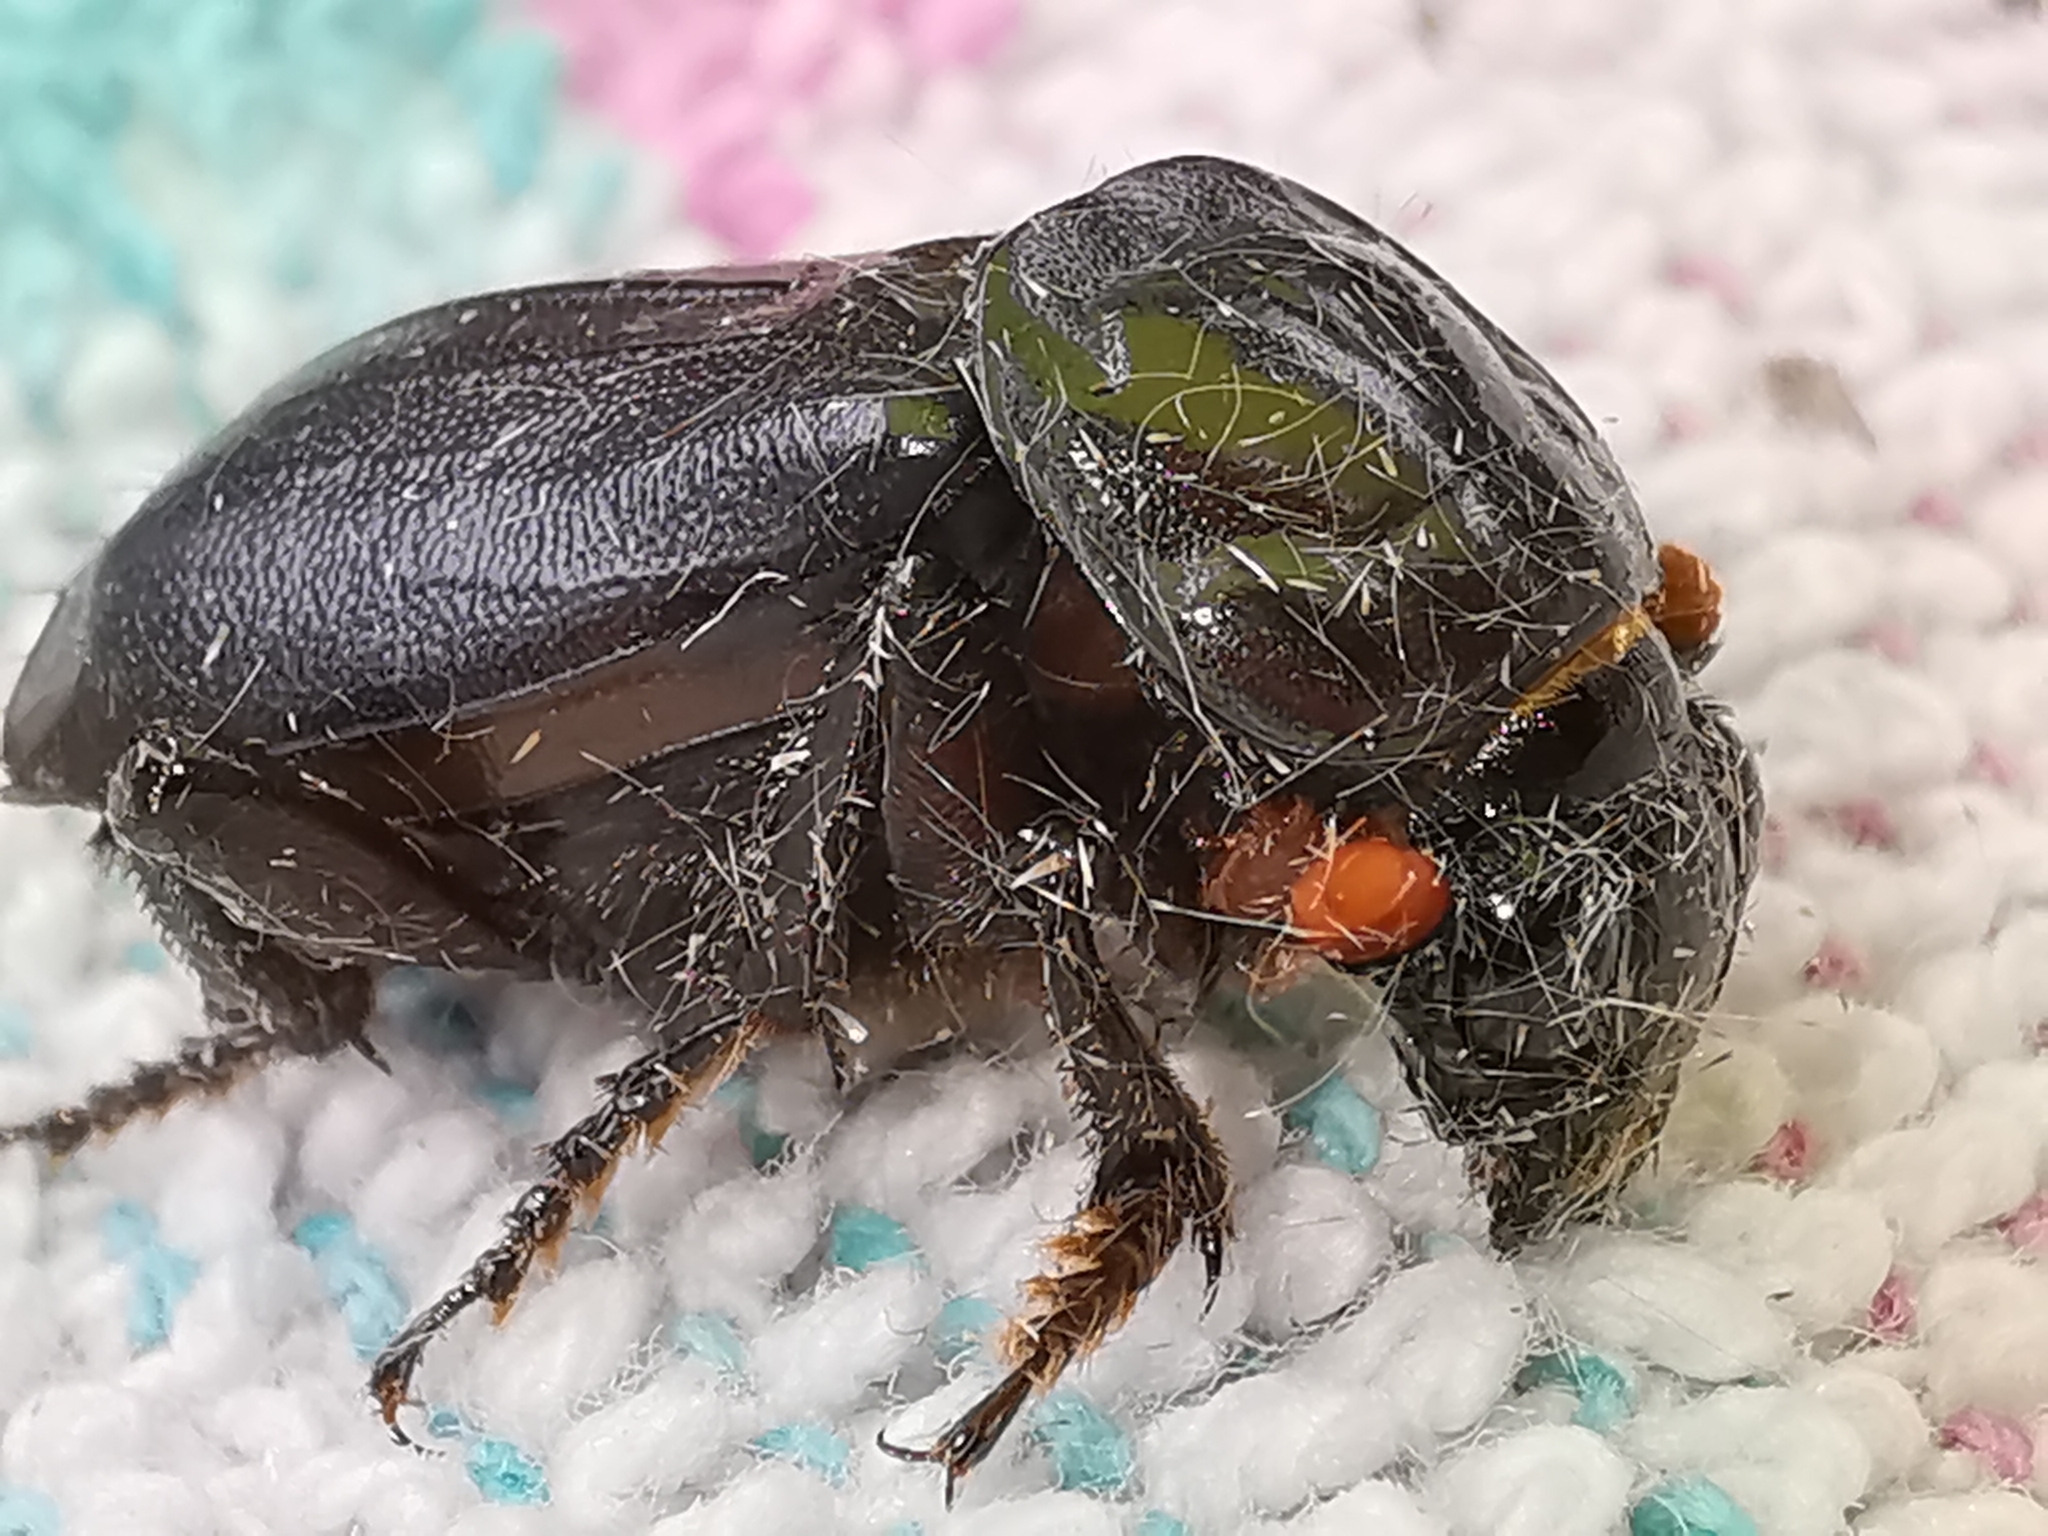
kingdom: Animalia
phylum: Arthropoda
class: Insecta
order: Coleoptera
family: Staphylinidae
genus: Nicrophorus
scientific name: Nicrophorus humator
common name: Black sexton beetle
